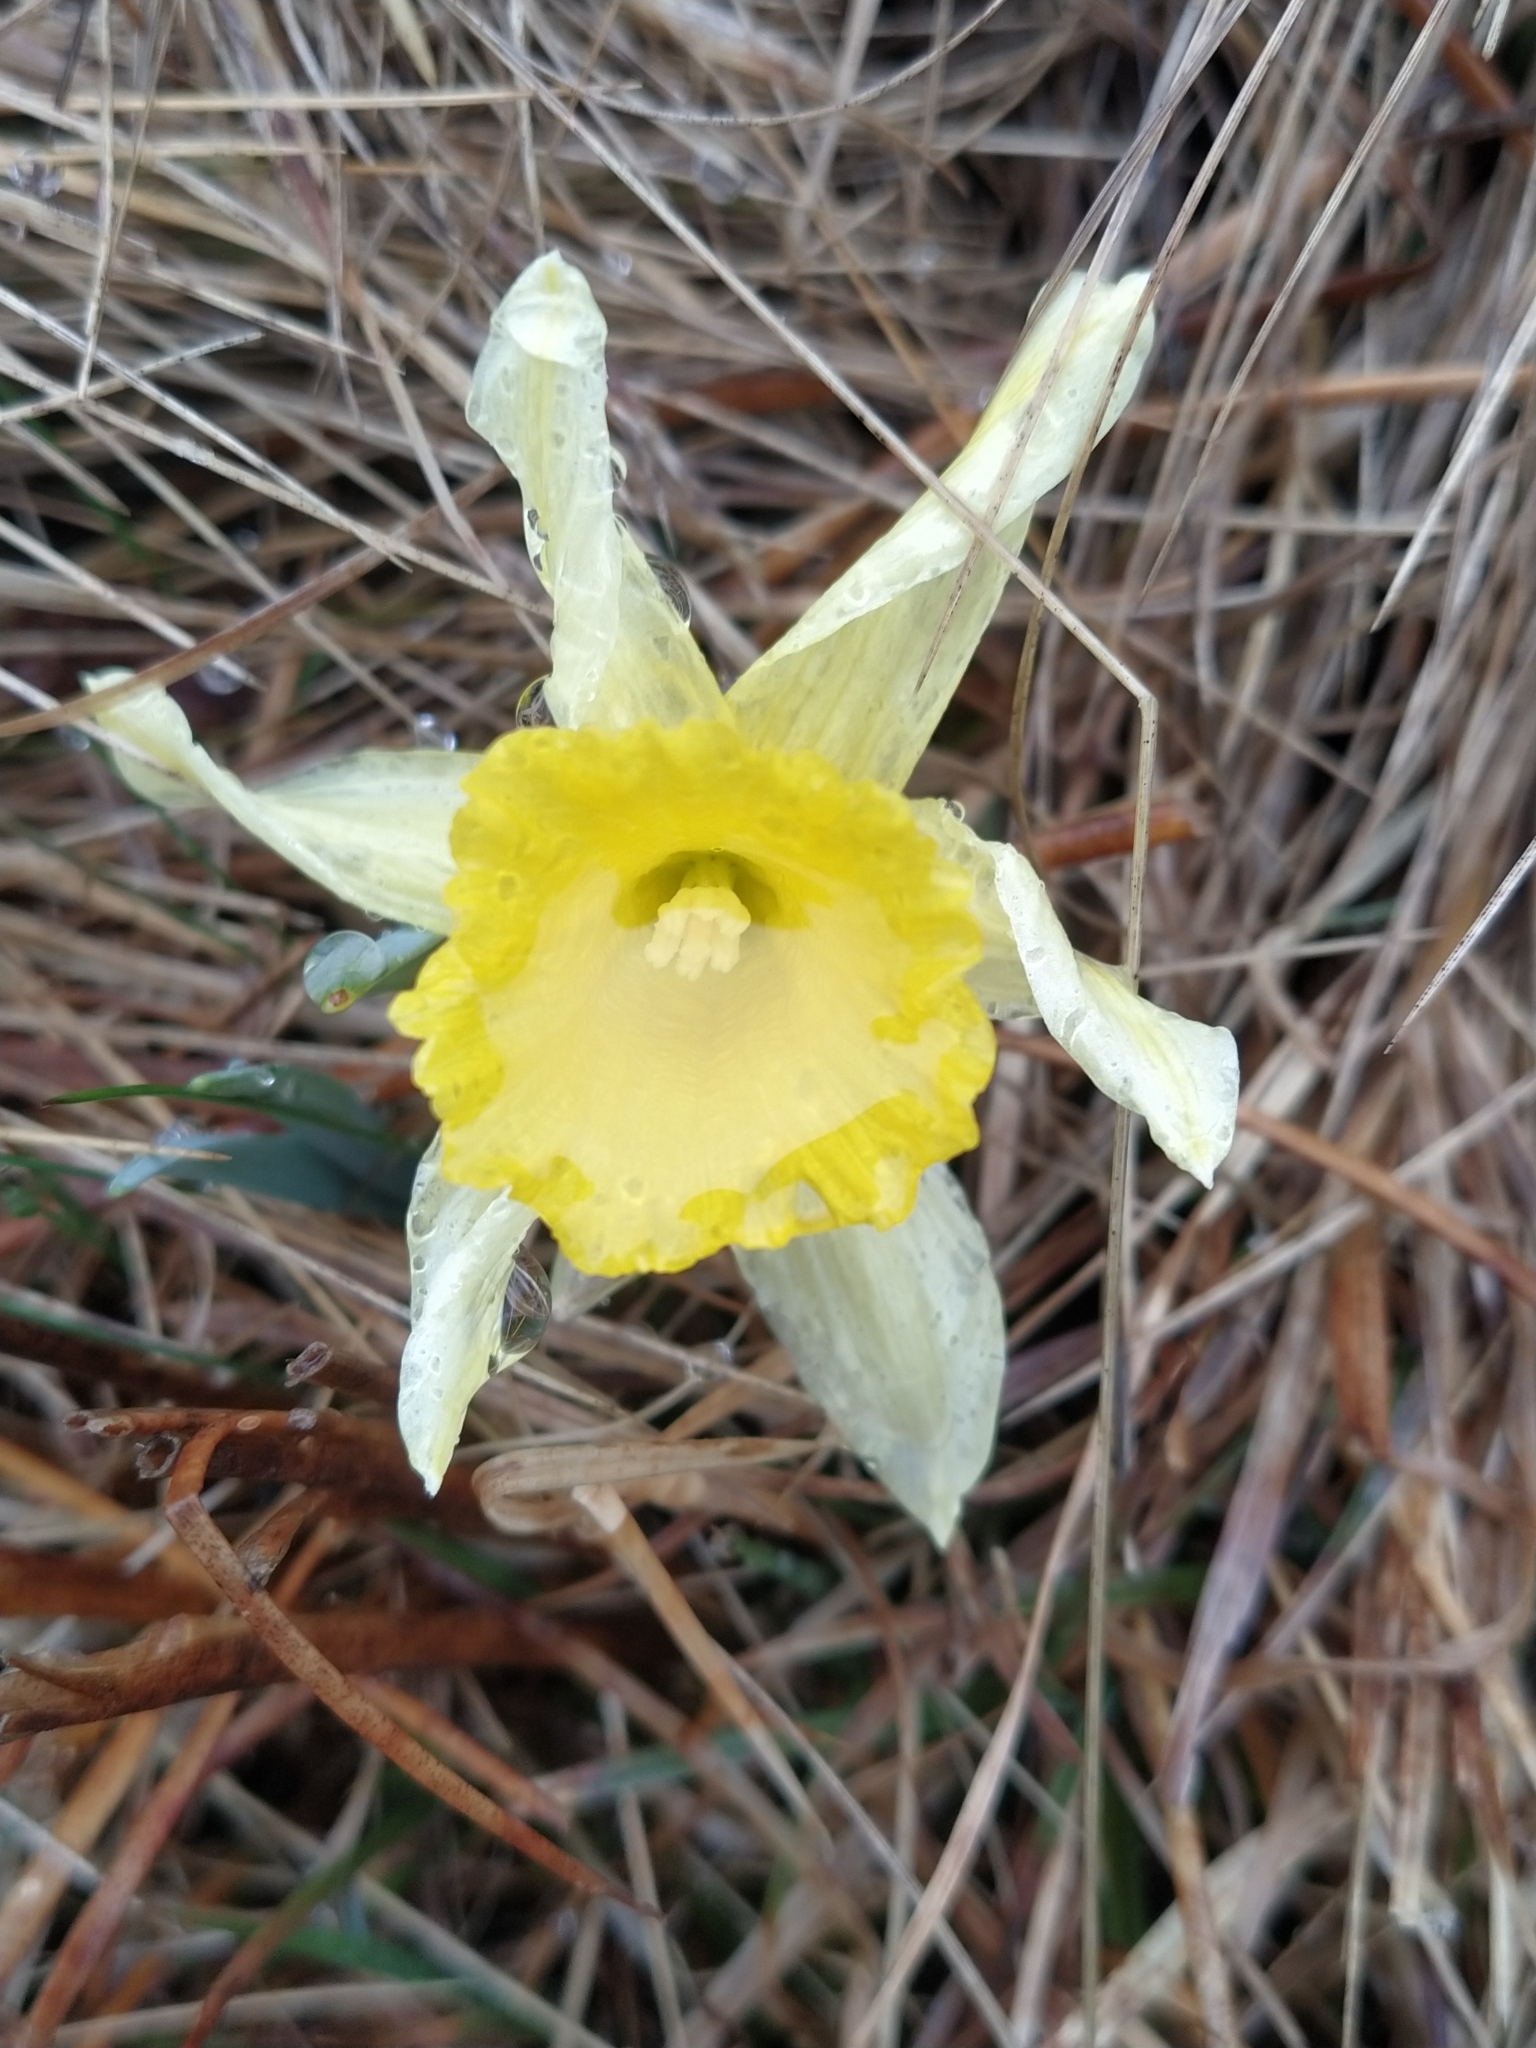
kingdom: Plantae
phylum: Tracheophyta
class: Liliopsida
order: Asparagales
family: Amaryllidaceae
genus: Narcissus
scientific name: Narcissus pseudonarcissus
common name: Daffodil
